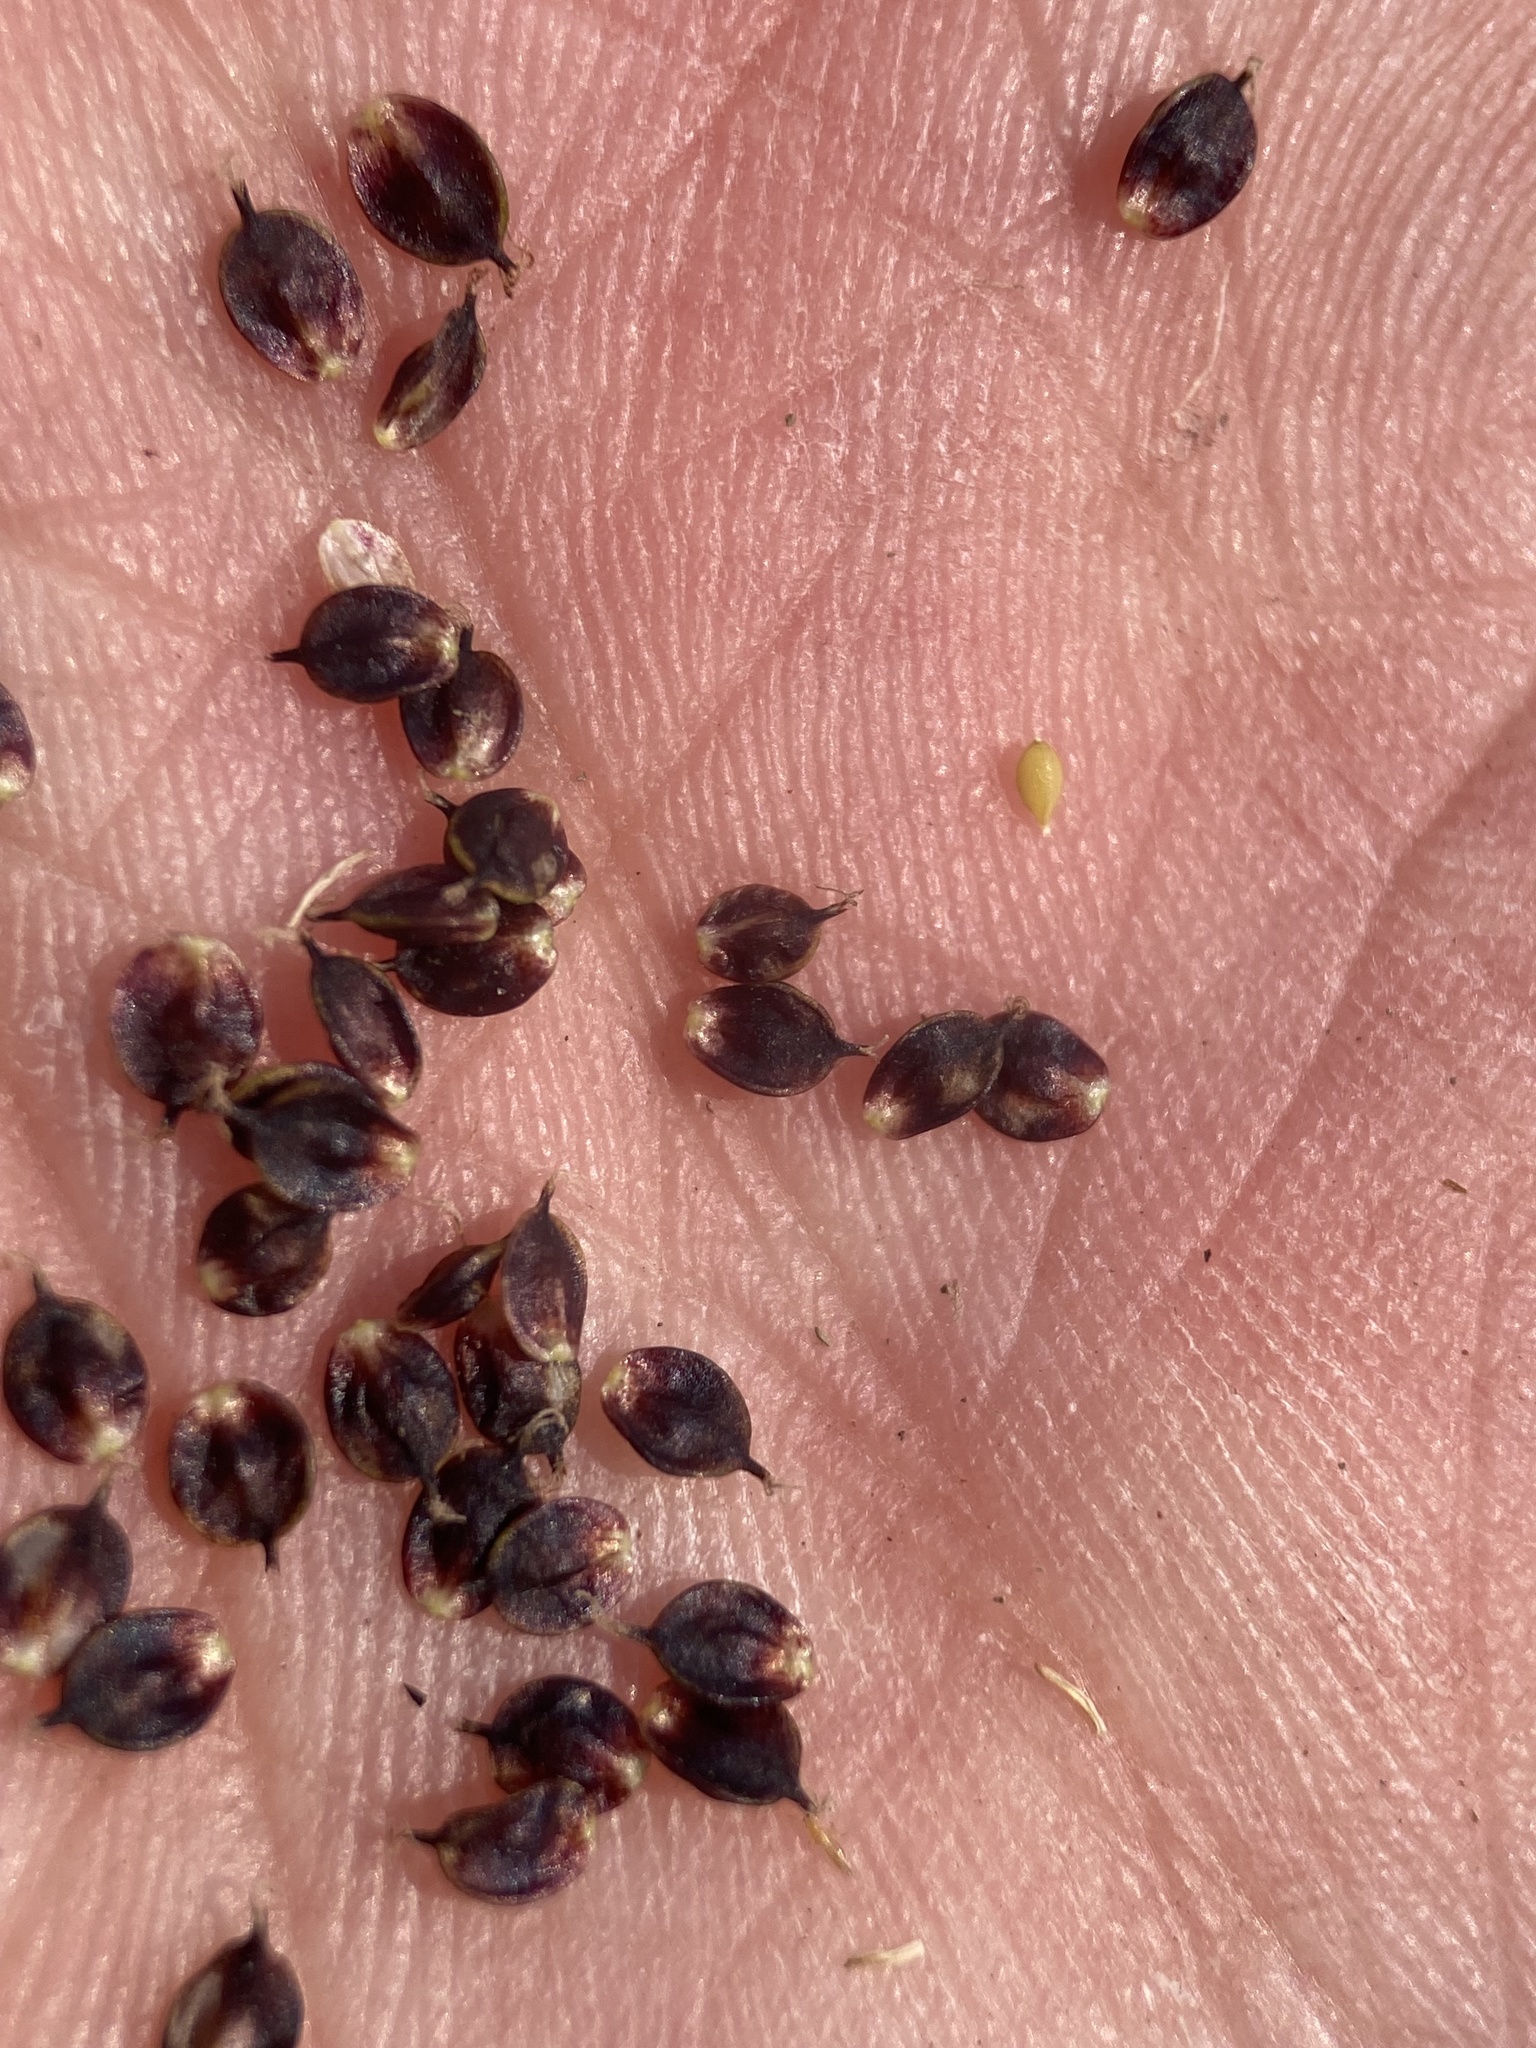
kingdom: Plantae
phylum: Tracheophyta
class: Liliopsida
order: Poales
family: Cyperaceae
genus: Carex
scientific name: Carex heteroneura
